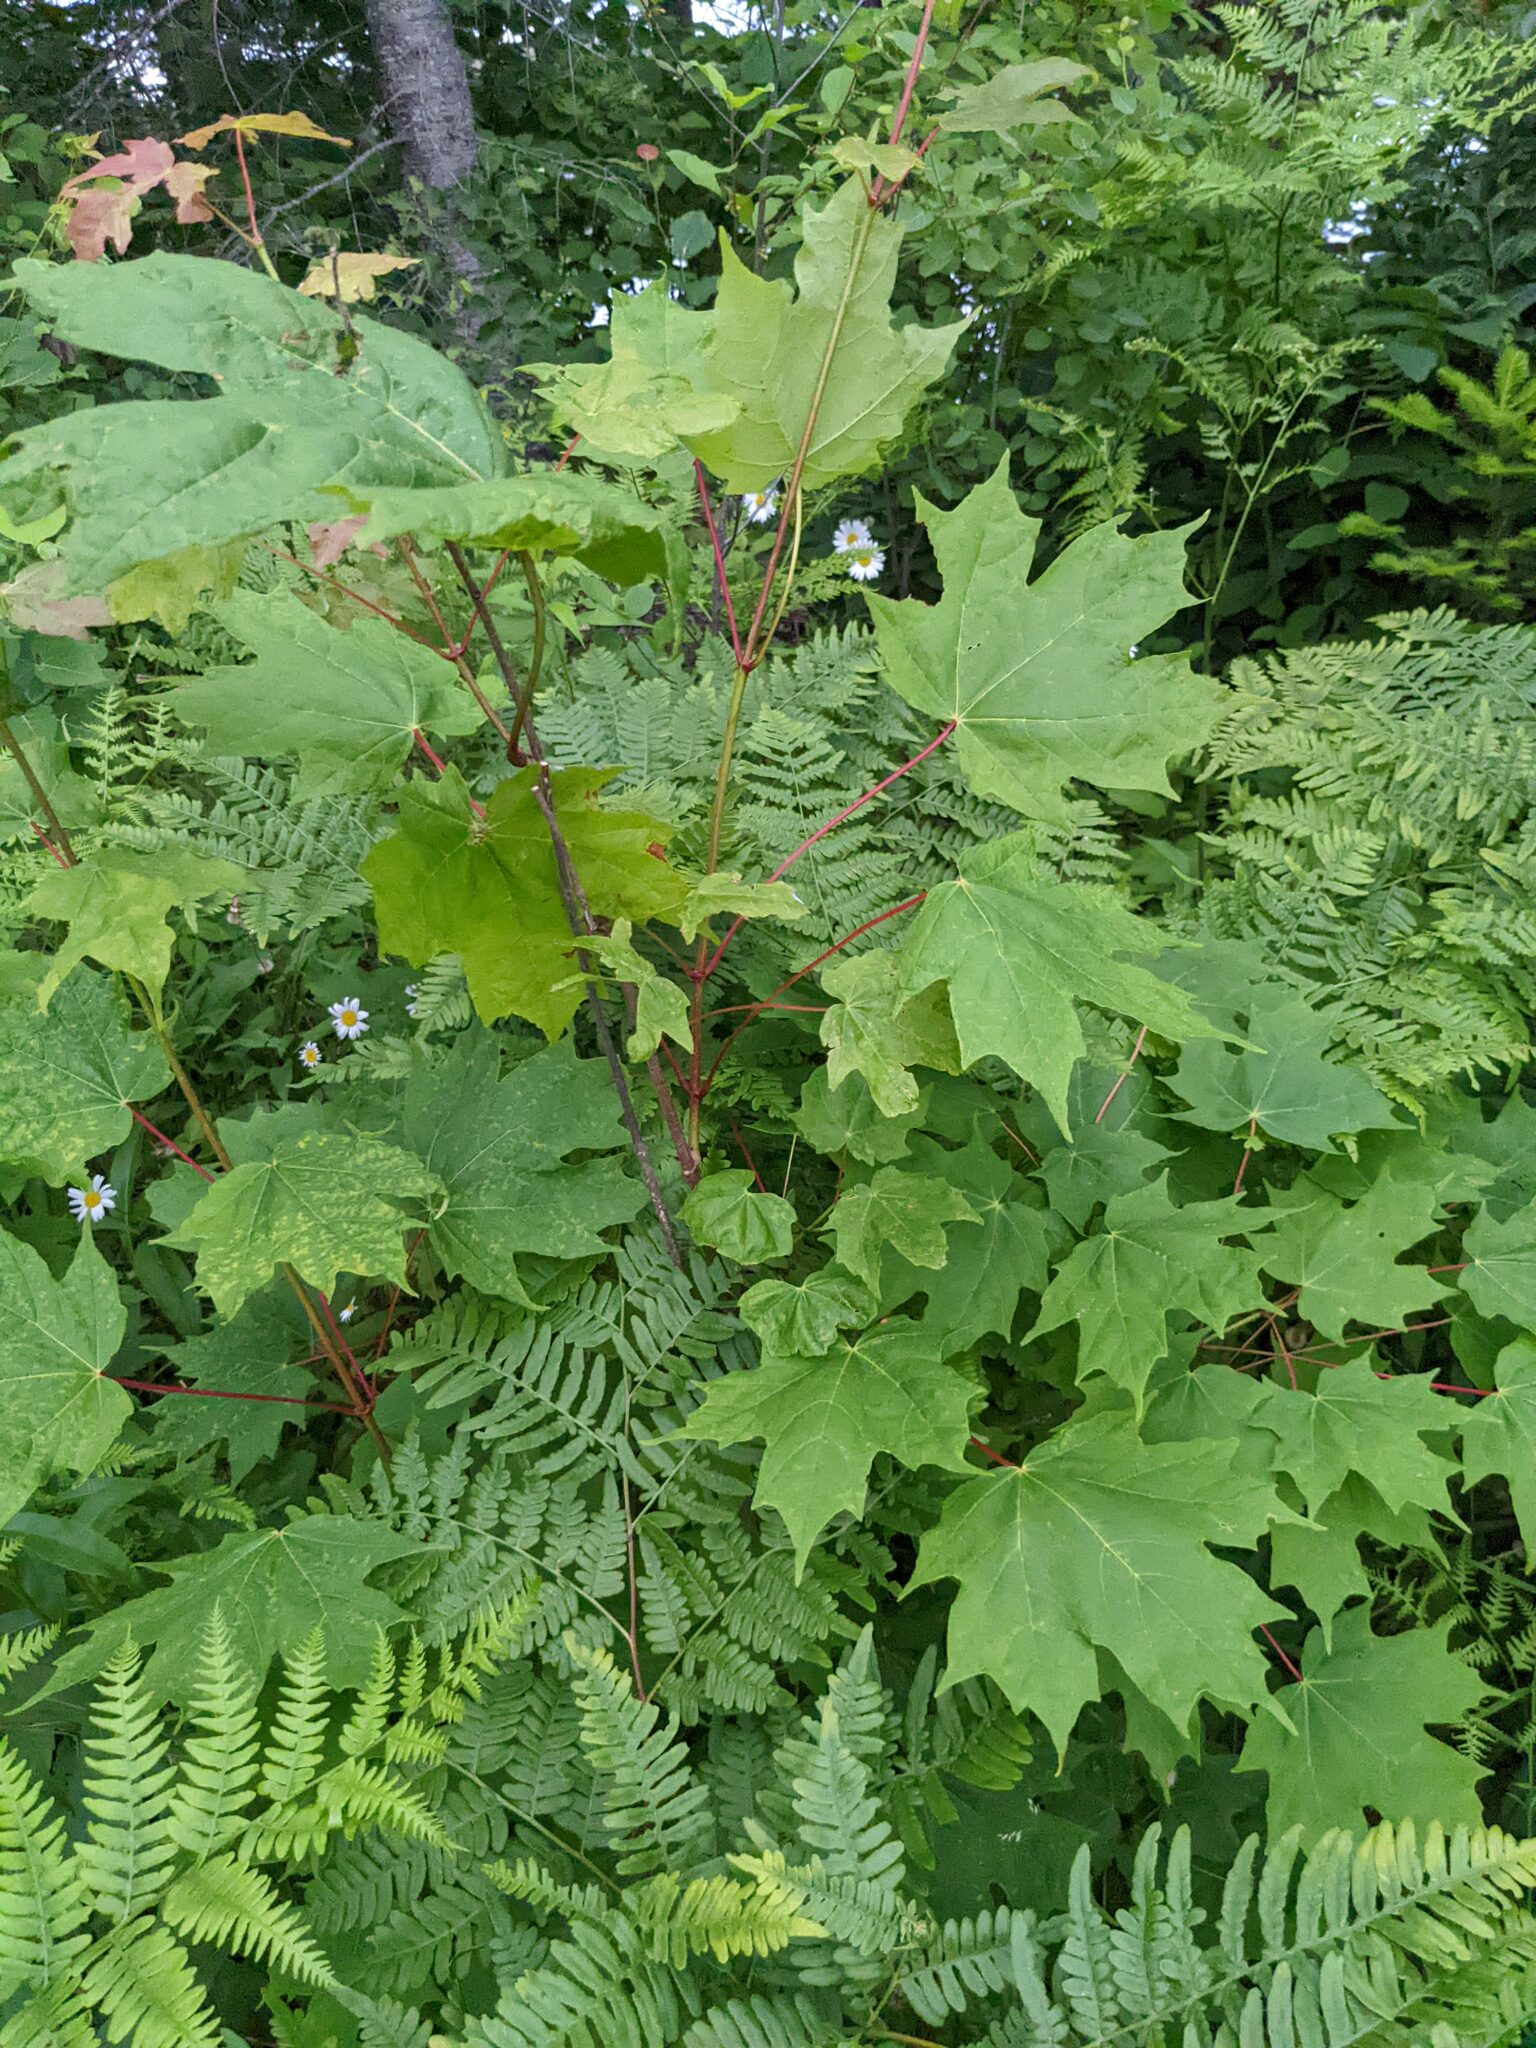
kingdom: Plantae
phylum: Tracheophyta
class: Magnoliopsida
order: Sapindales
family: Sapindaceae
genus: Acer
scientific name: Acer saccharum
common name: Sugar maple
